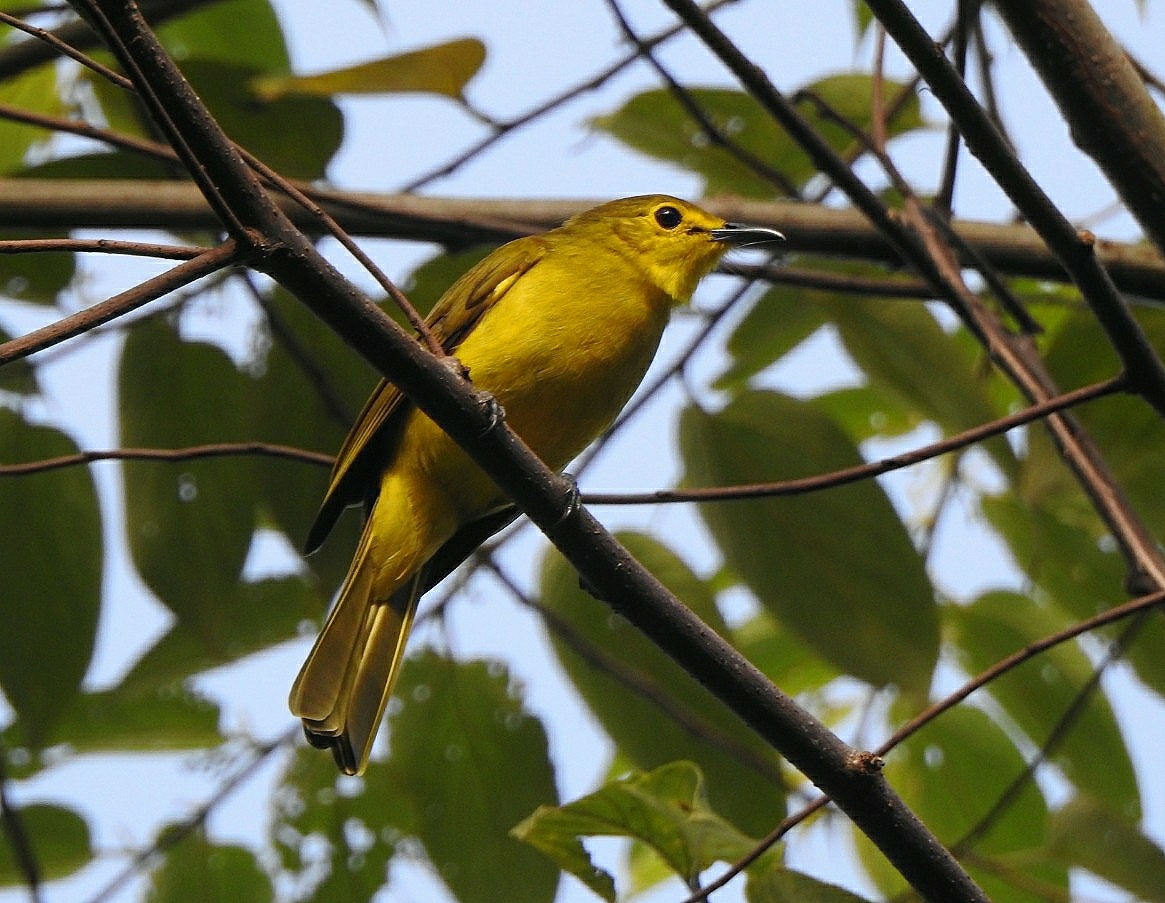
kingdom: Animalia
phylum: Chordata
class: Aves
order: Passeriformes
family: Pycnonotidae
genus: Acritillas
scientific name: Acritillas indica
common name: Yellow-browed bulbul
